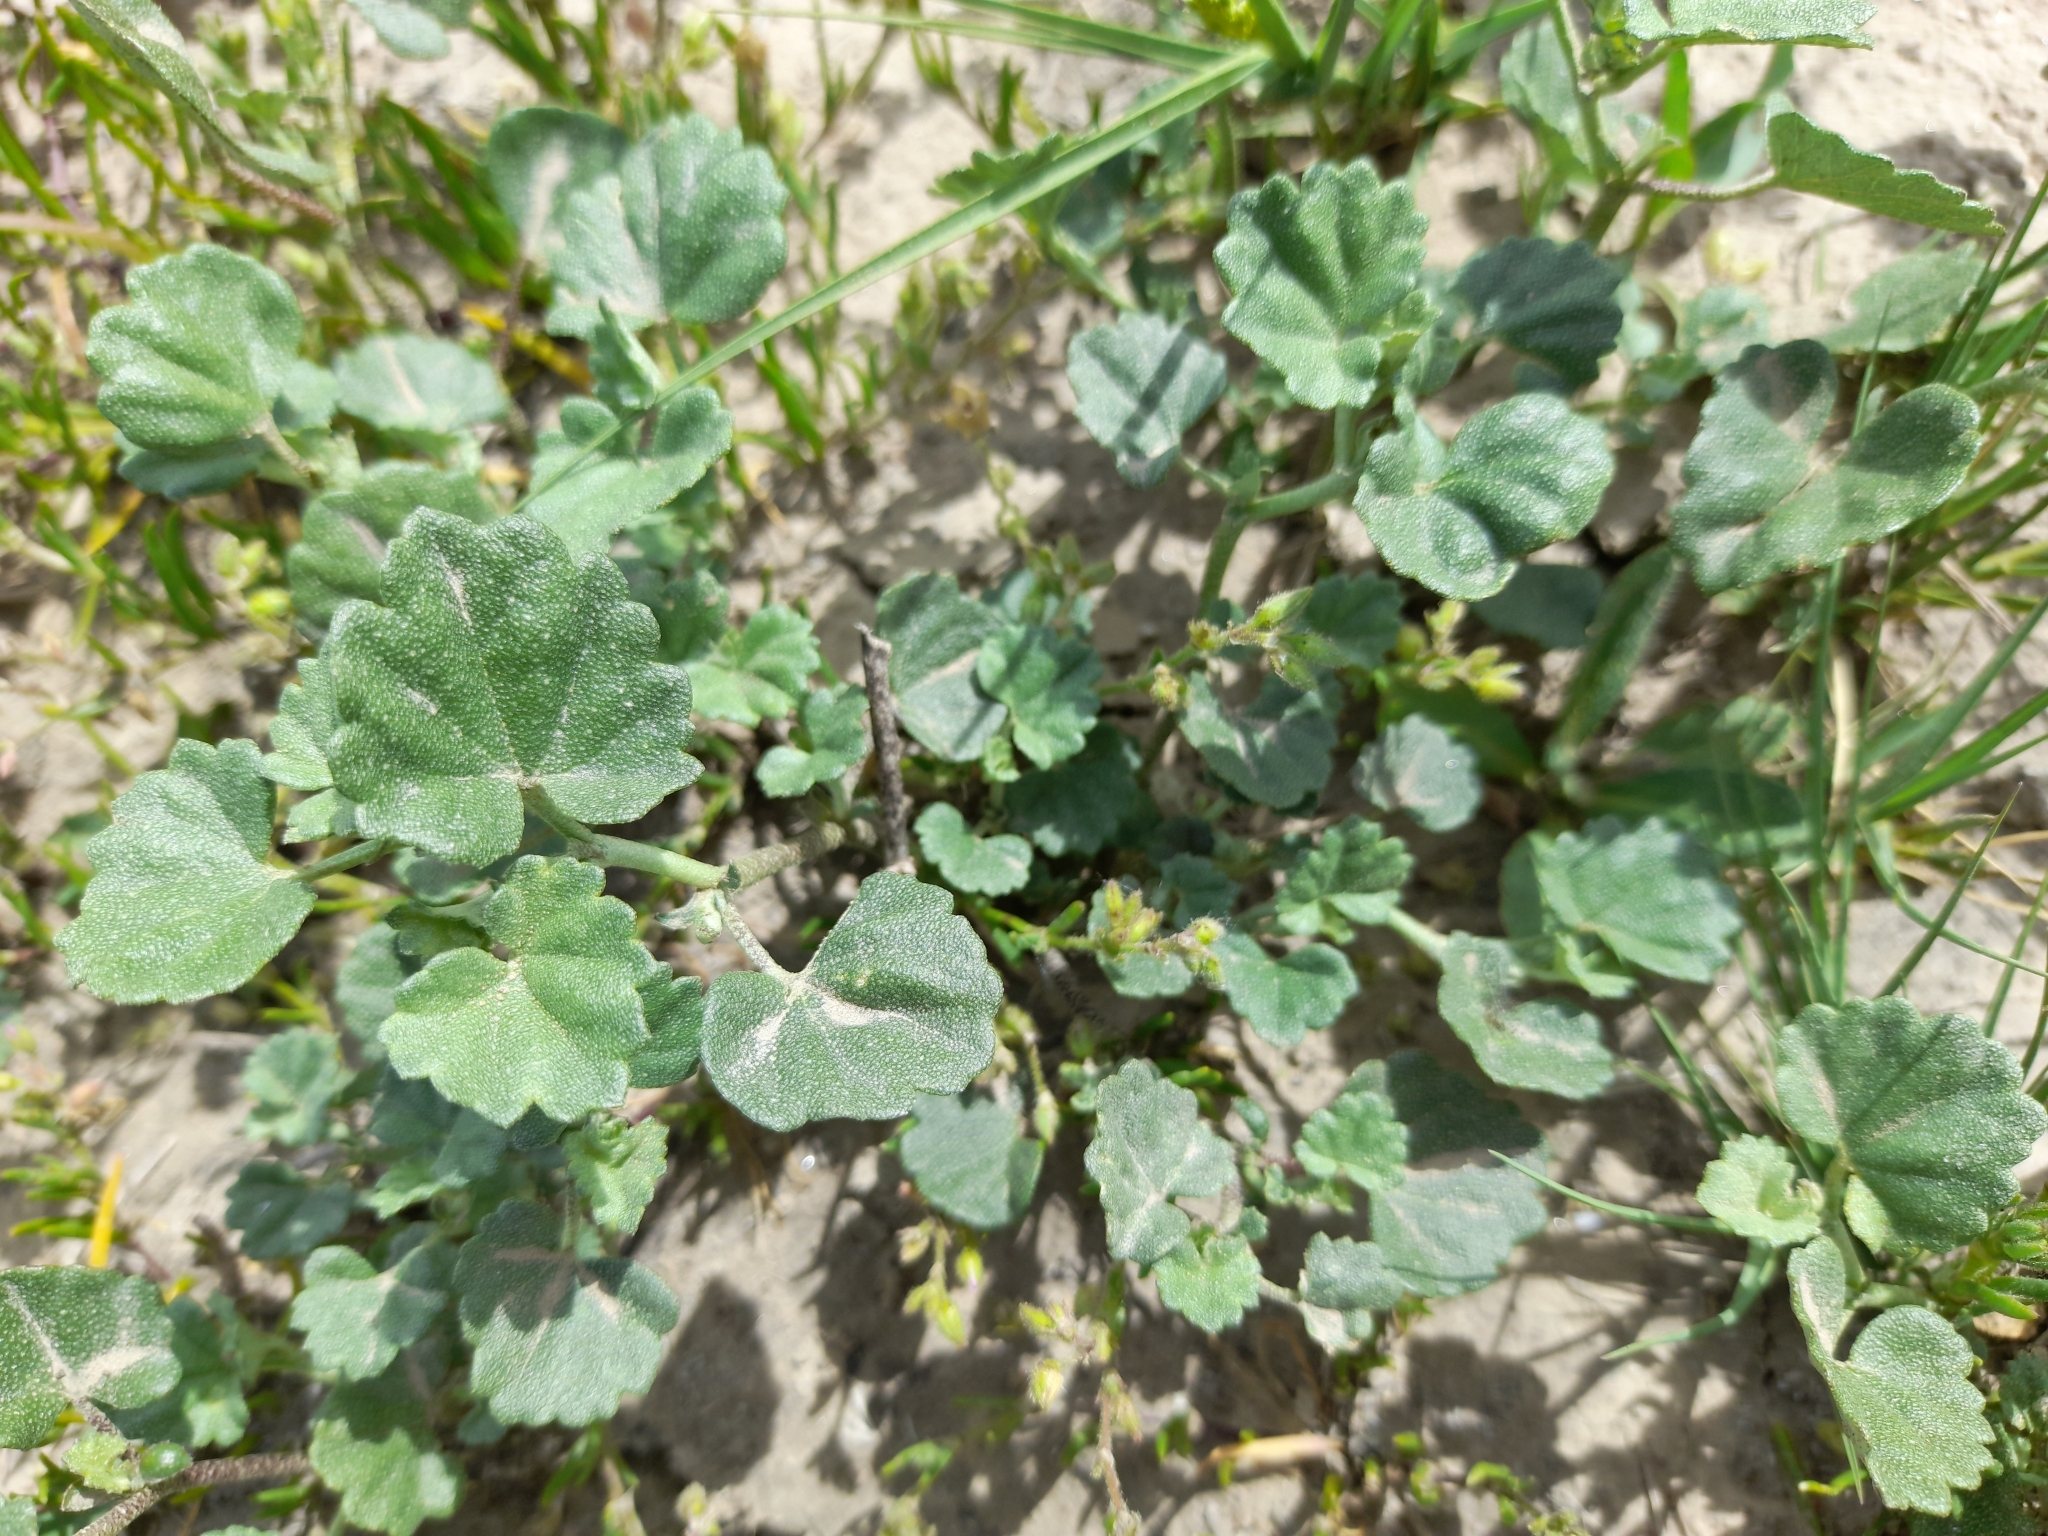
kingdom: Plantae
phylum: Tracheophyta
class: Magnoliopsida
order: Malvales
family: Malvaceae
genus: Malvella
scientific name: Malvella leprosa
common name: Alkali-mallow
